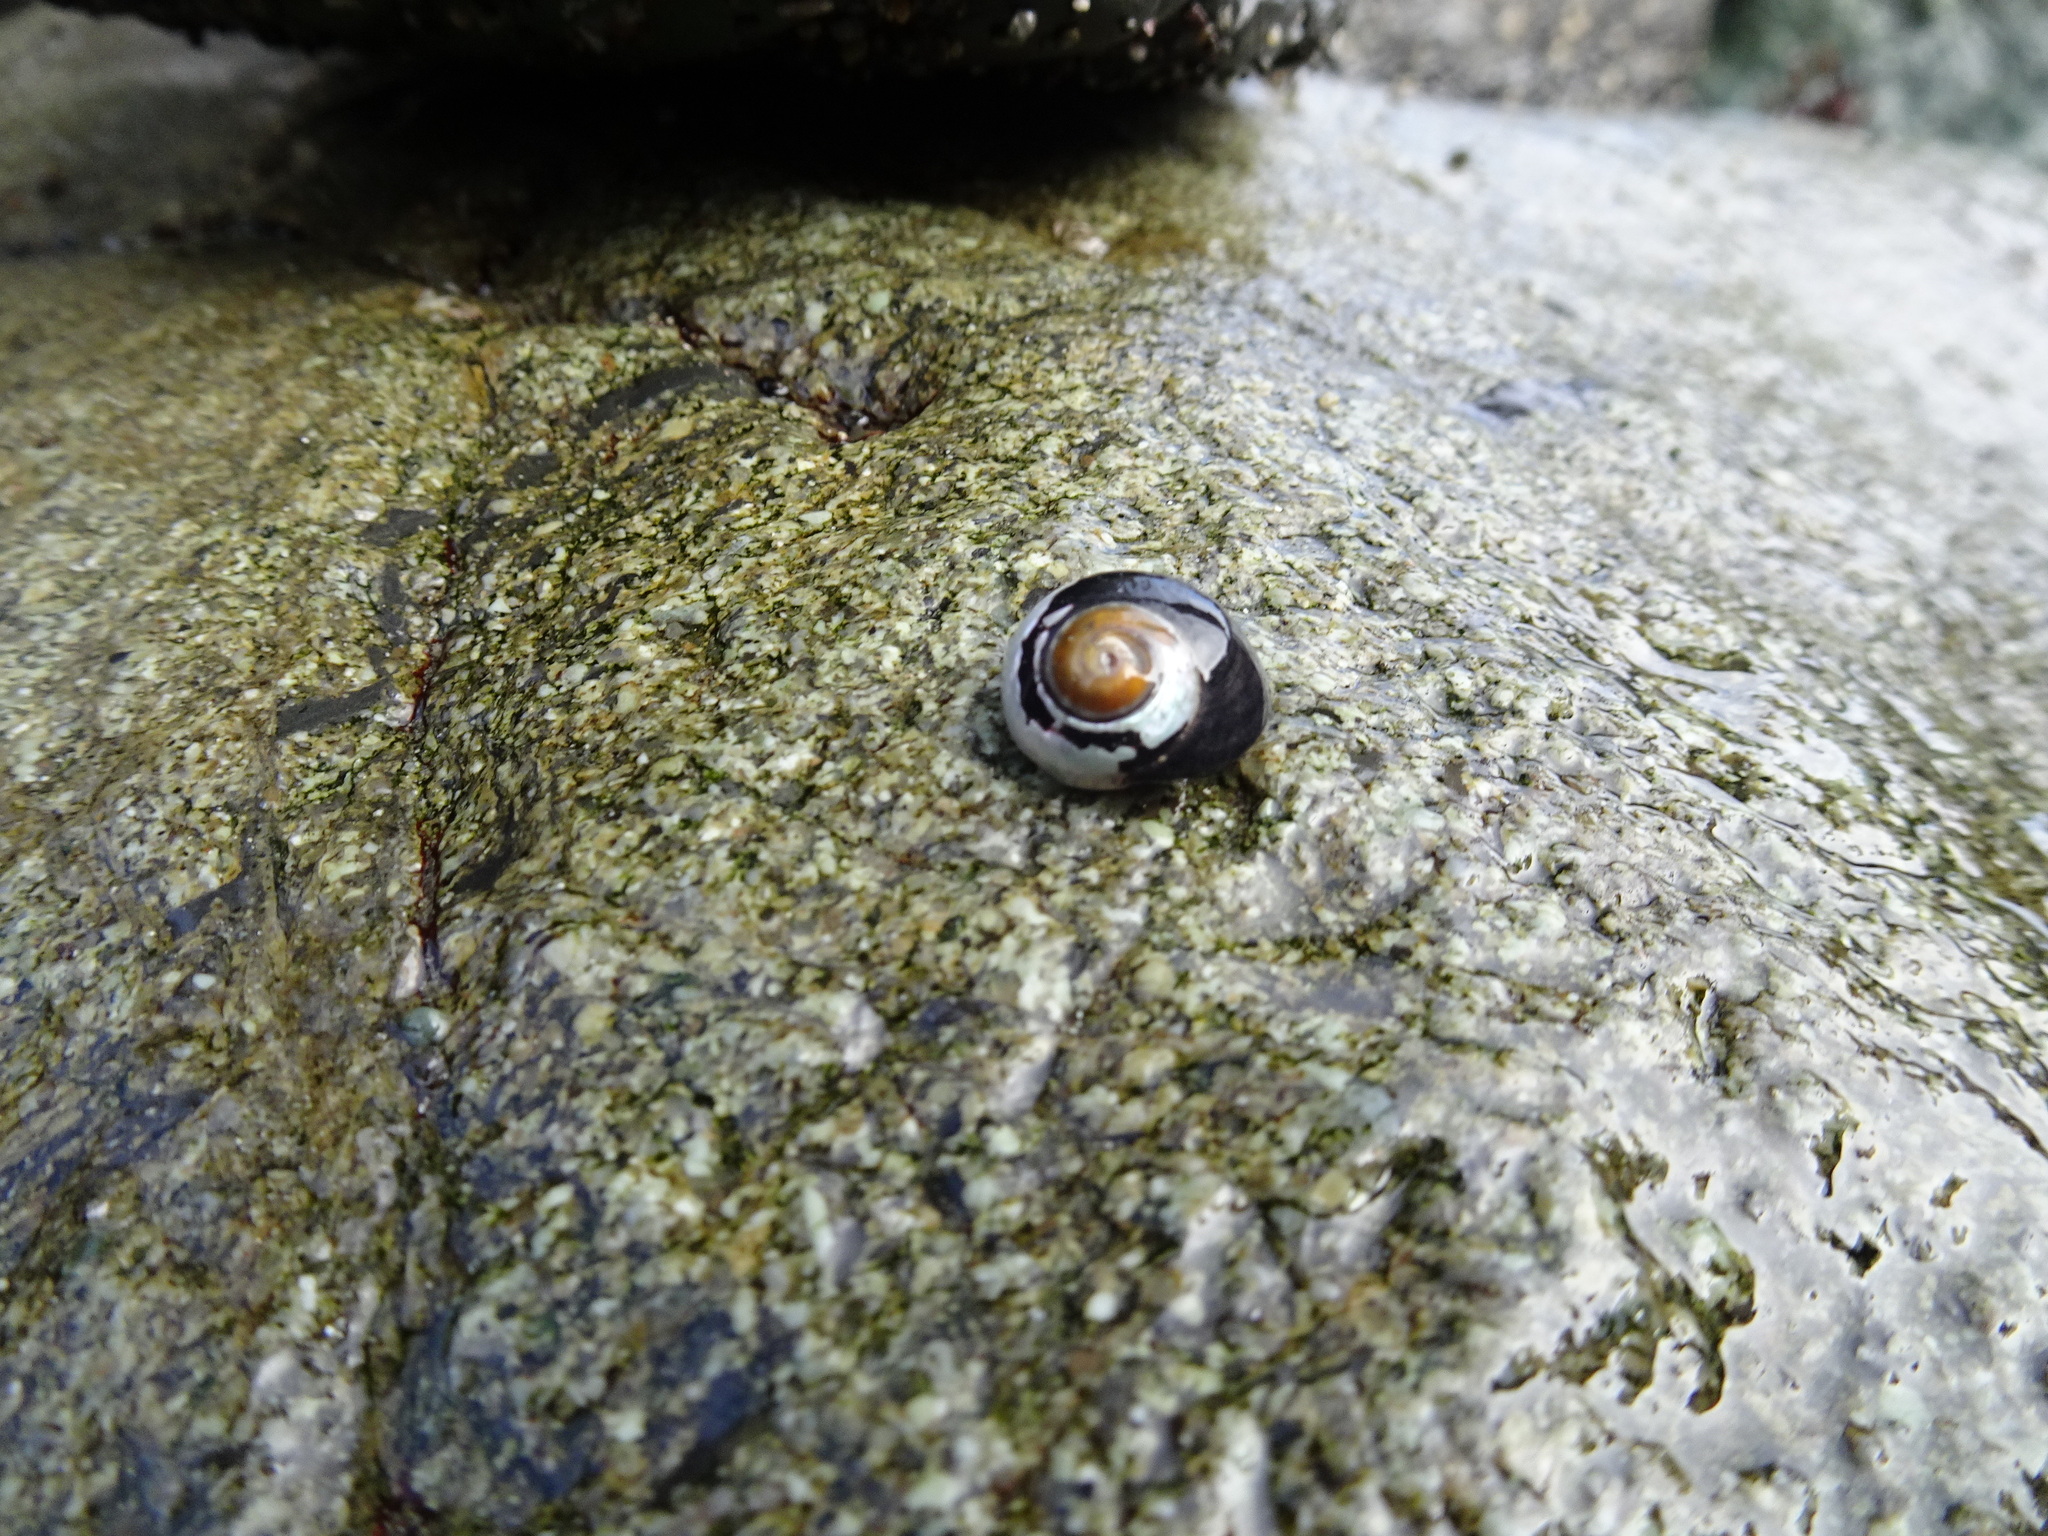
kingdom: Animalia
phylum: Arthropoda
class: Malacostraca
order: Decapoda
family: Paguridae
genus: Pagurus
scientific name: Pagurus samuelis
